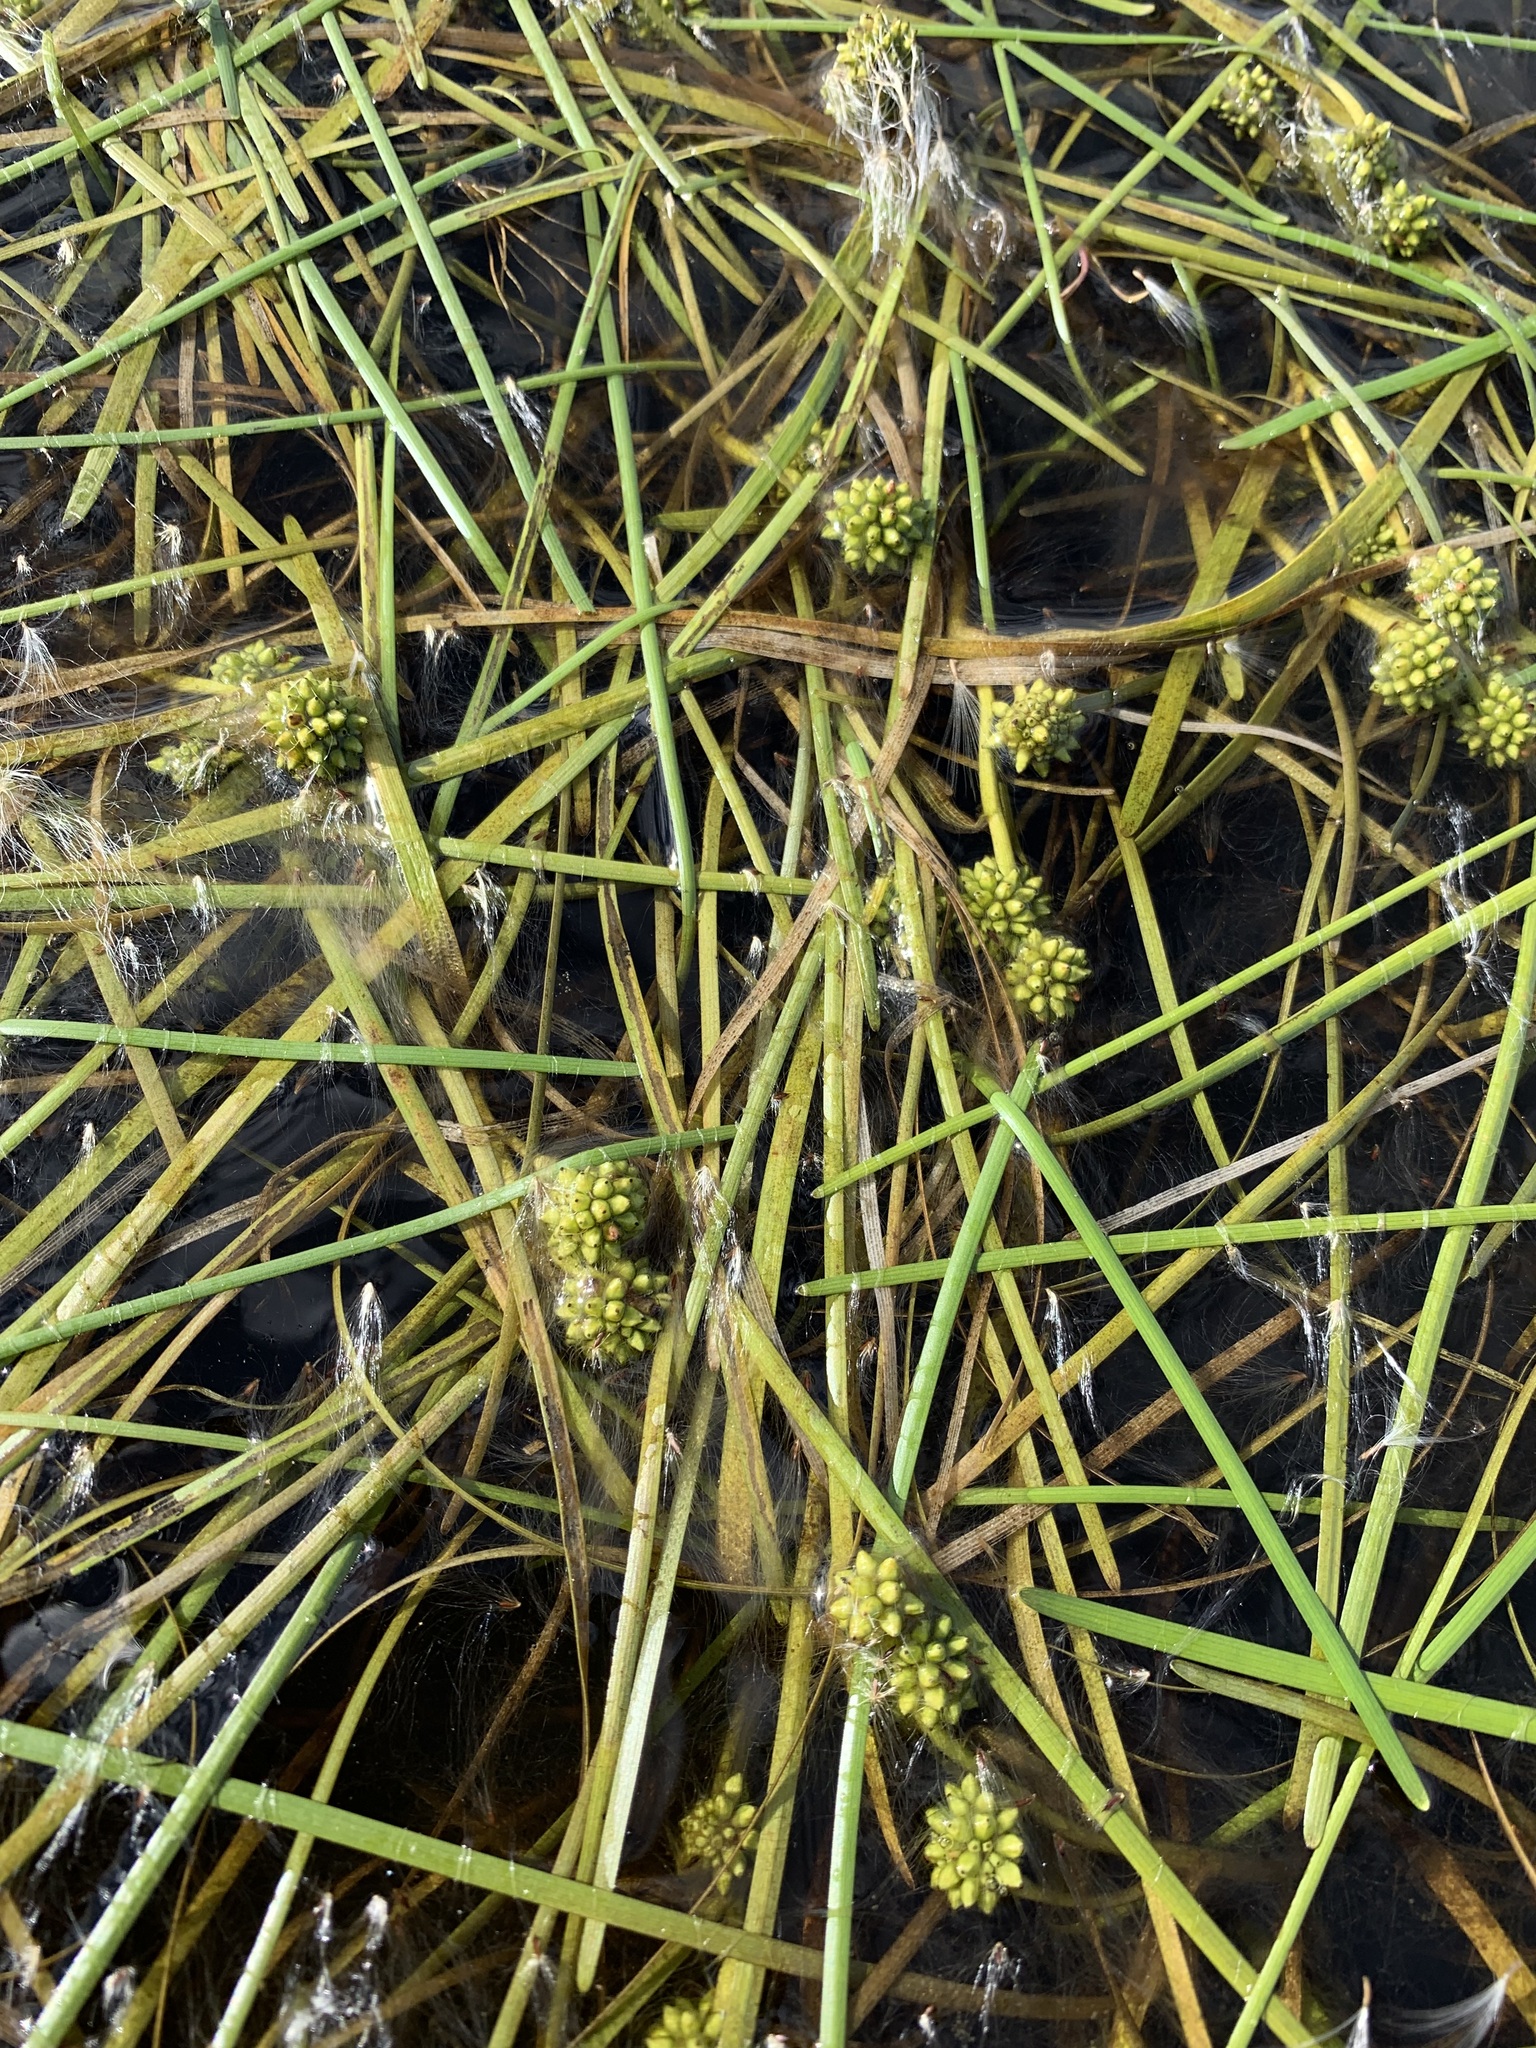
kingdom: Plantae
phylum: Tracheophyta
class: Liliopsida
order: Poales
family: Typhaceae
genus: Sparganium
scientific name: Sparganium hyperboreum
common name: Arctic burreed
